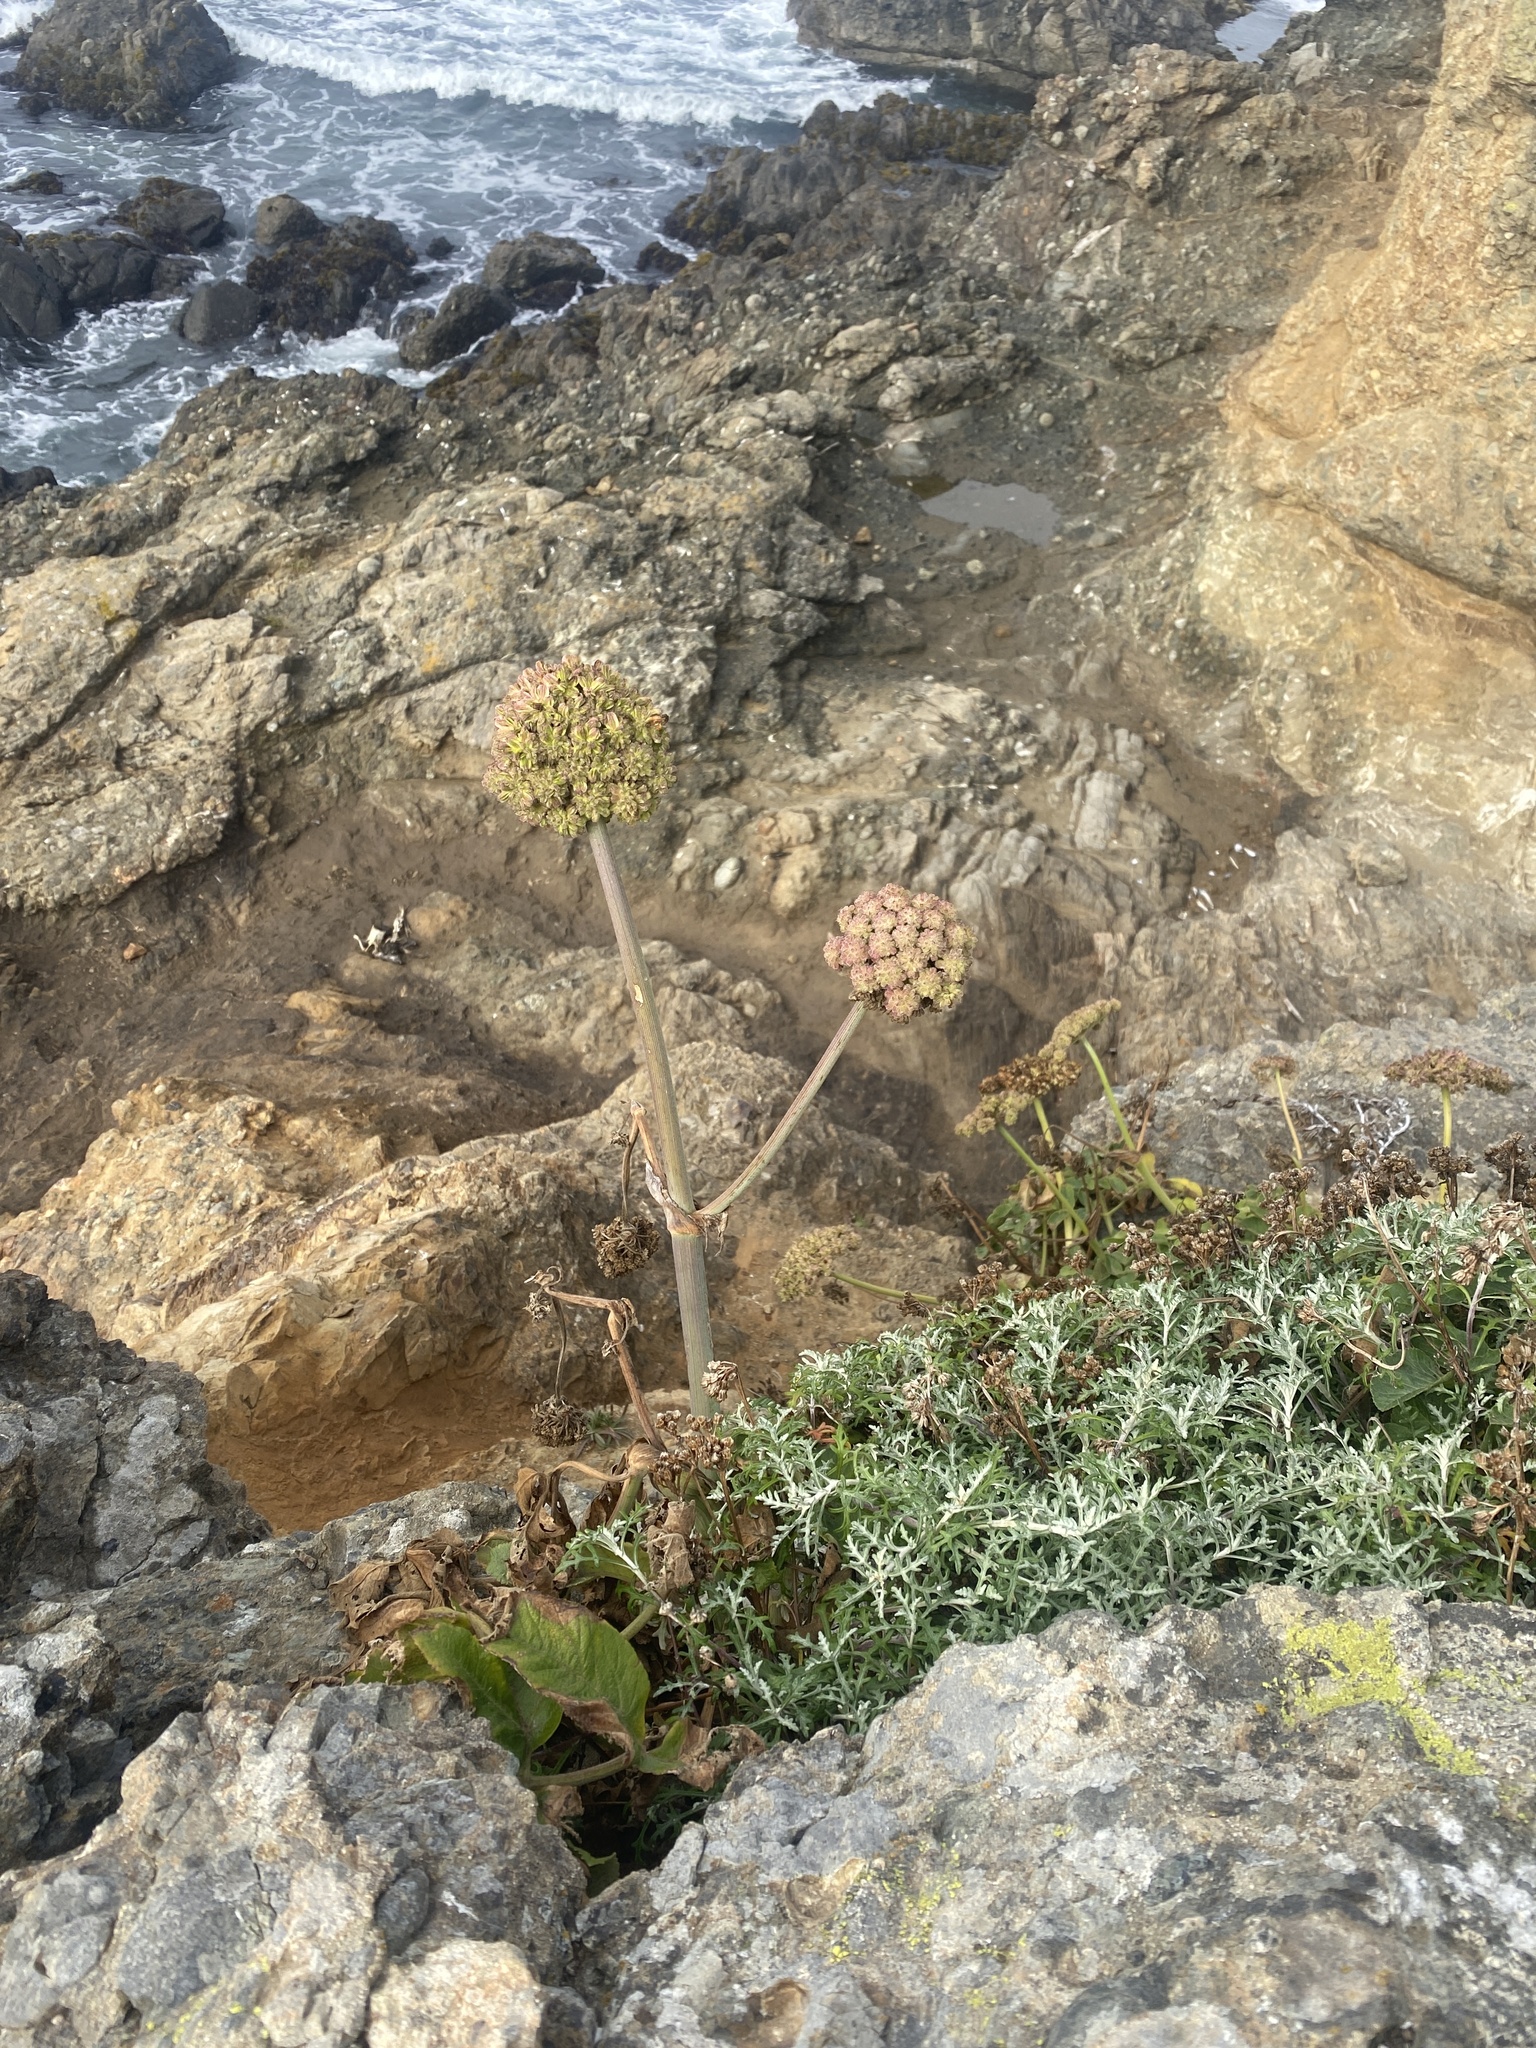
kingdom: Plantae
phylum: Tracheophyta
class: Magnoliopsida
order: Apiales
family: Apiaceae
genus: Angelica
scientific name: Angelica hendersonii
